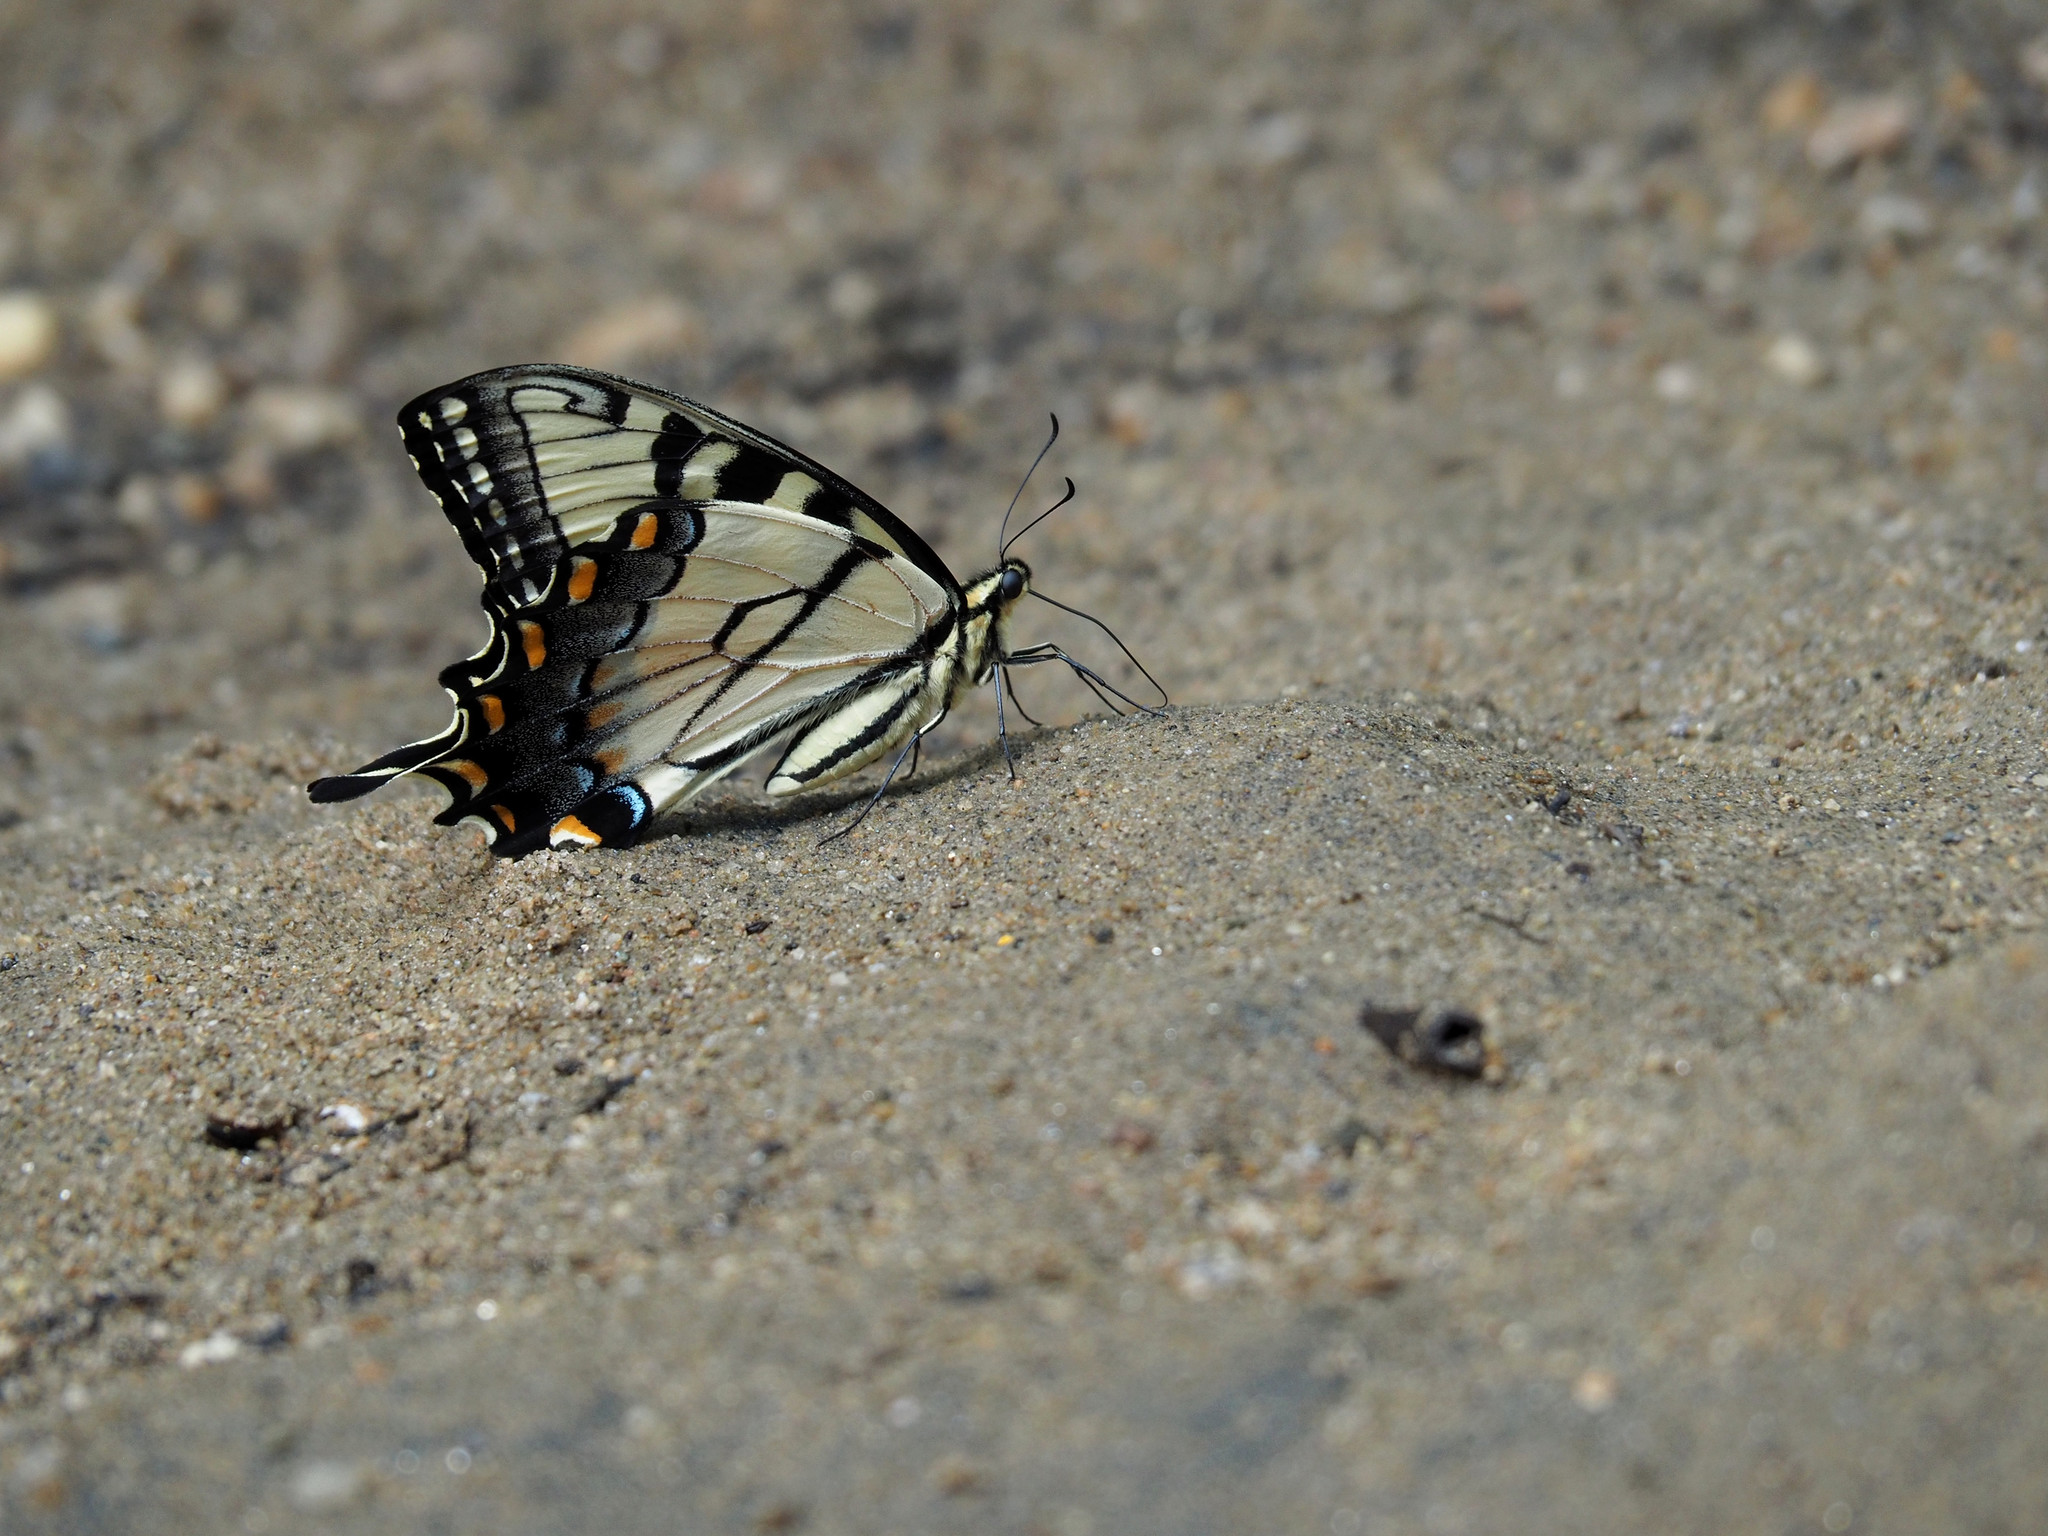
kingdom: Animalia
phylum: Arthropoda
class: Insecta
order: Lepidoptera
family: Papilionidae
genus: Papilio
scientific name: Papilio glaucus
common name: Tiger swallowtail
